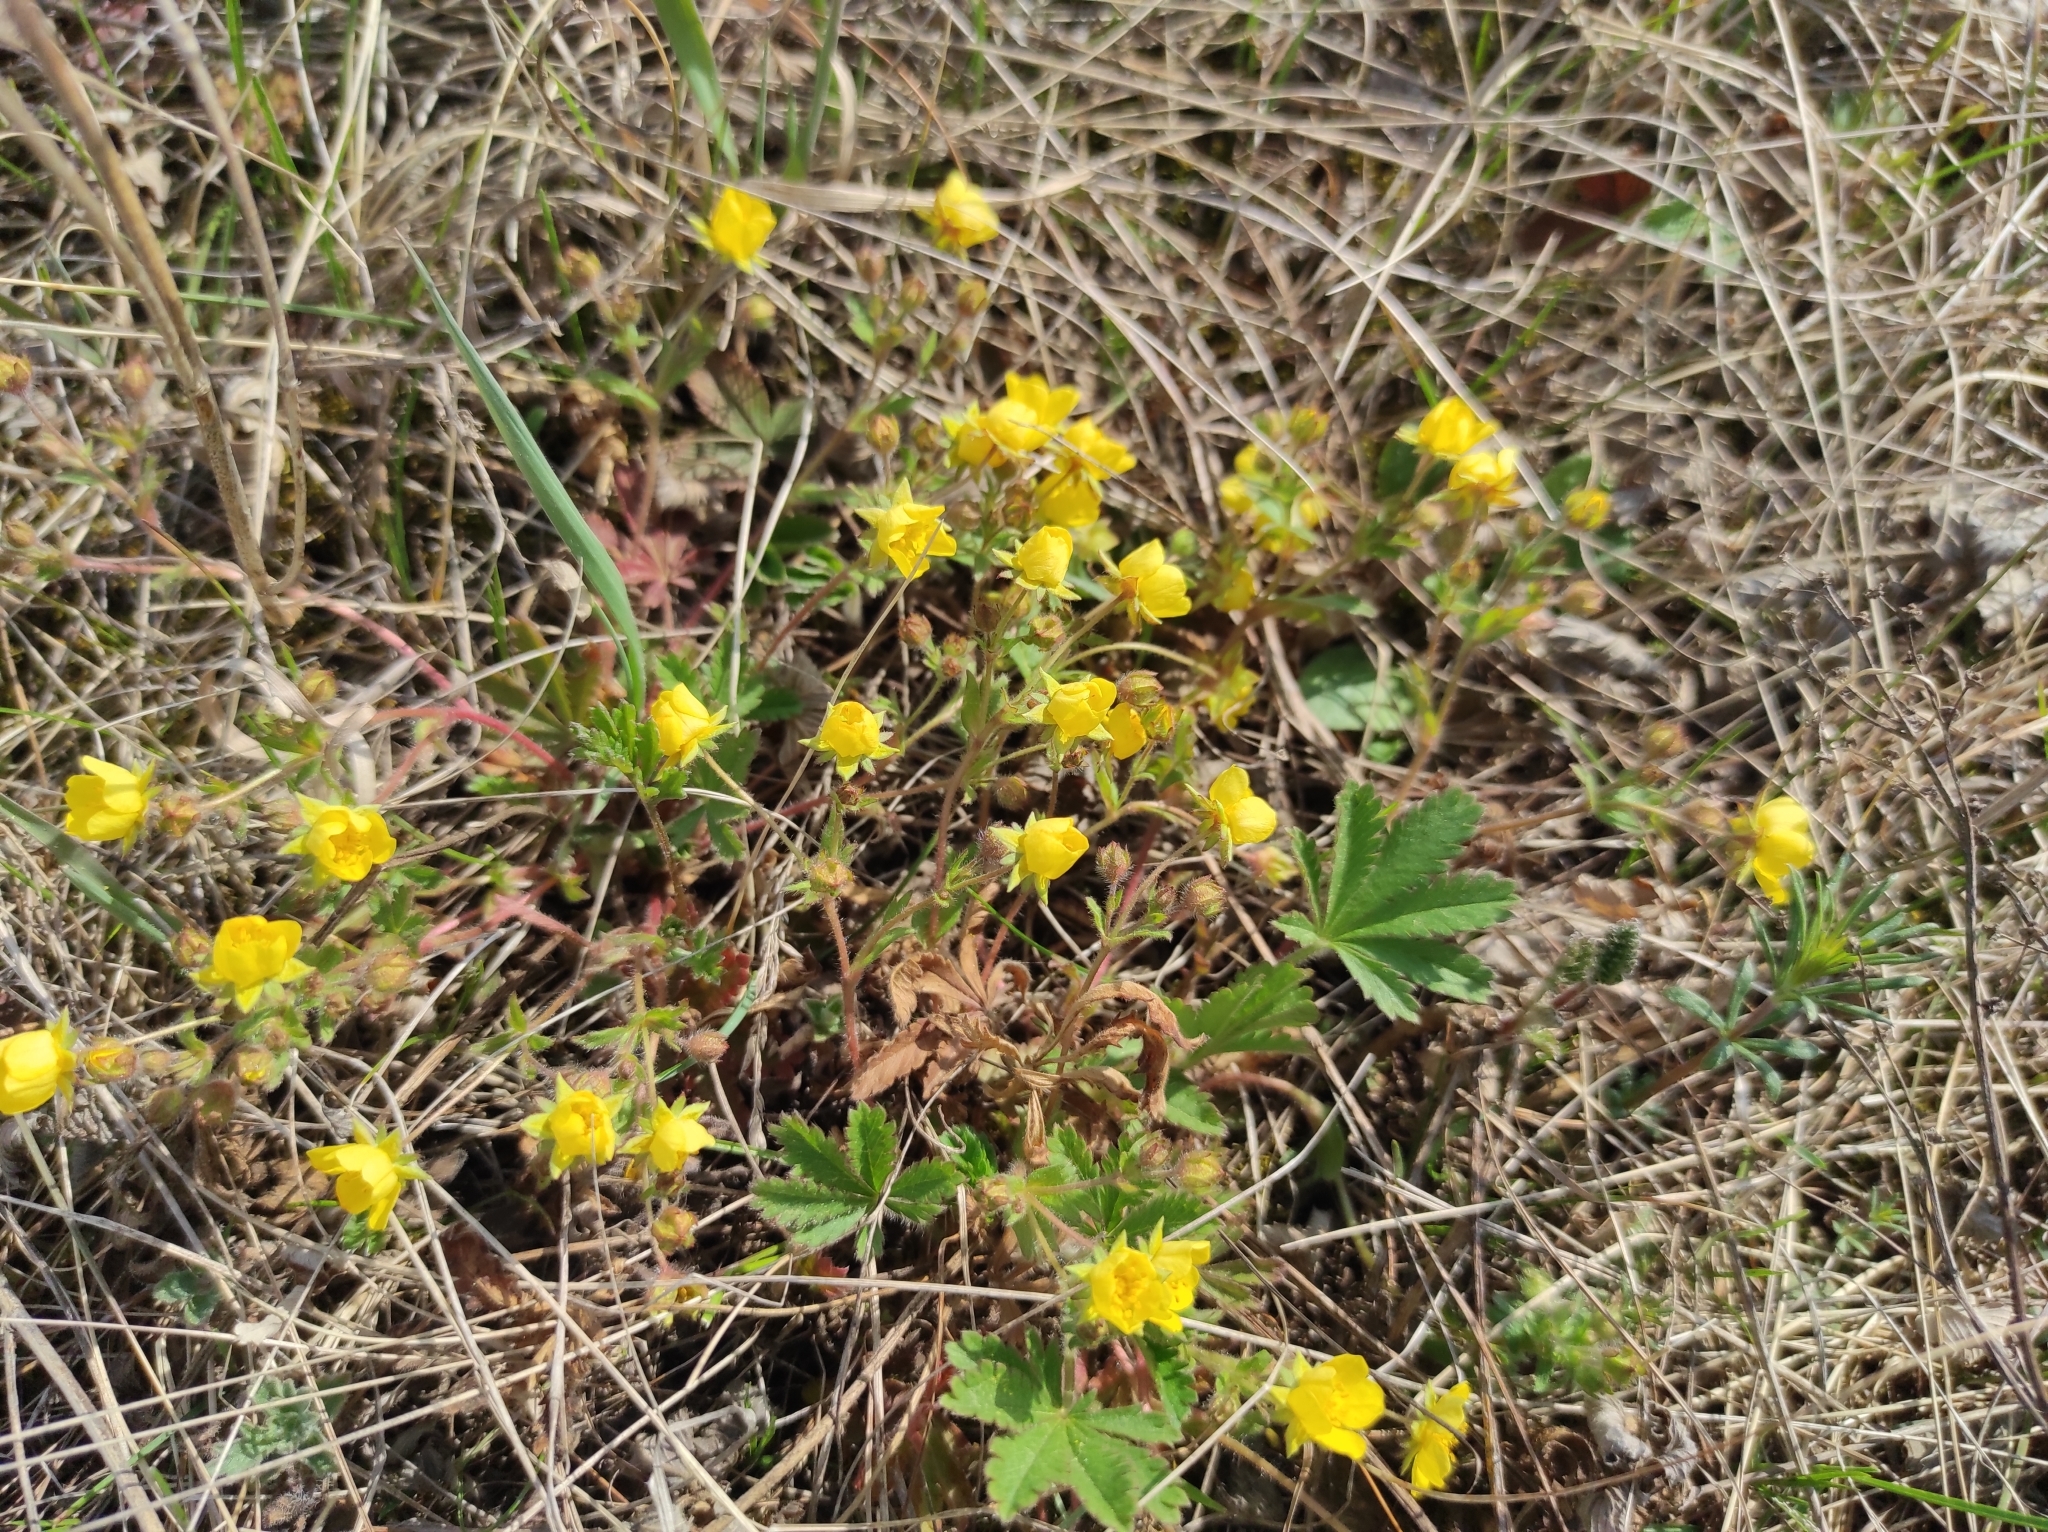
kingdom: Plantae
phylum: Tracheophyta
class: Magnoliopsida
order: Rosales
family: Rosaceae
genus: Potentilla
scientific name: Potentilla humifusa
